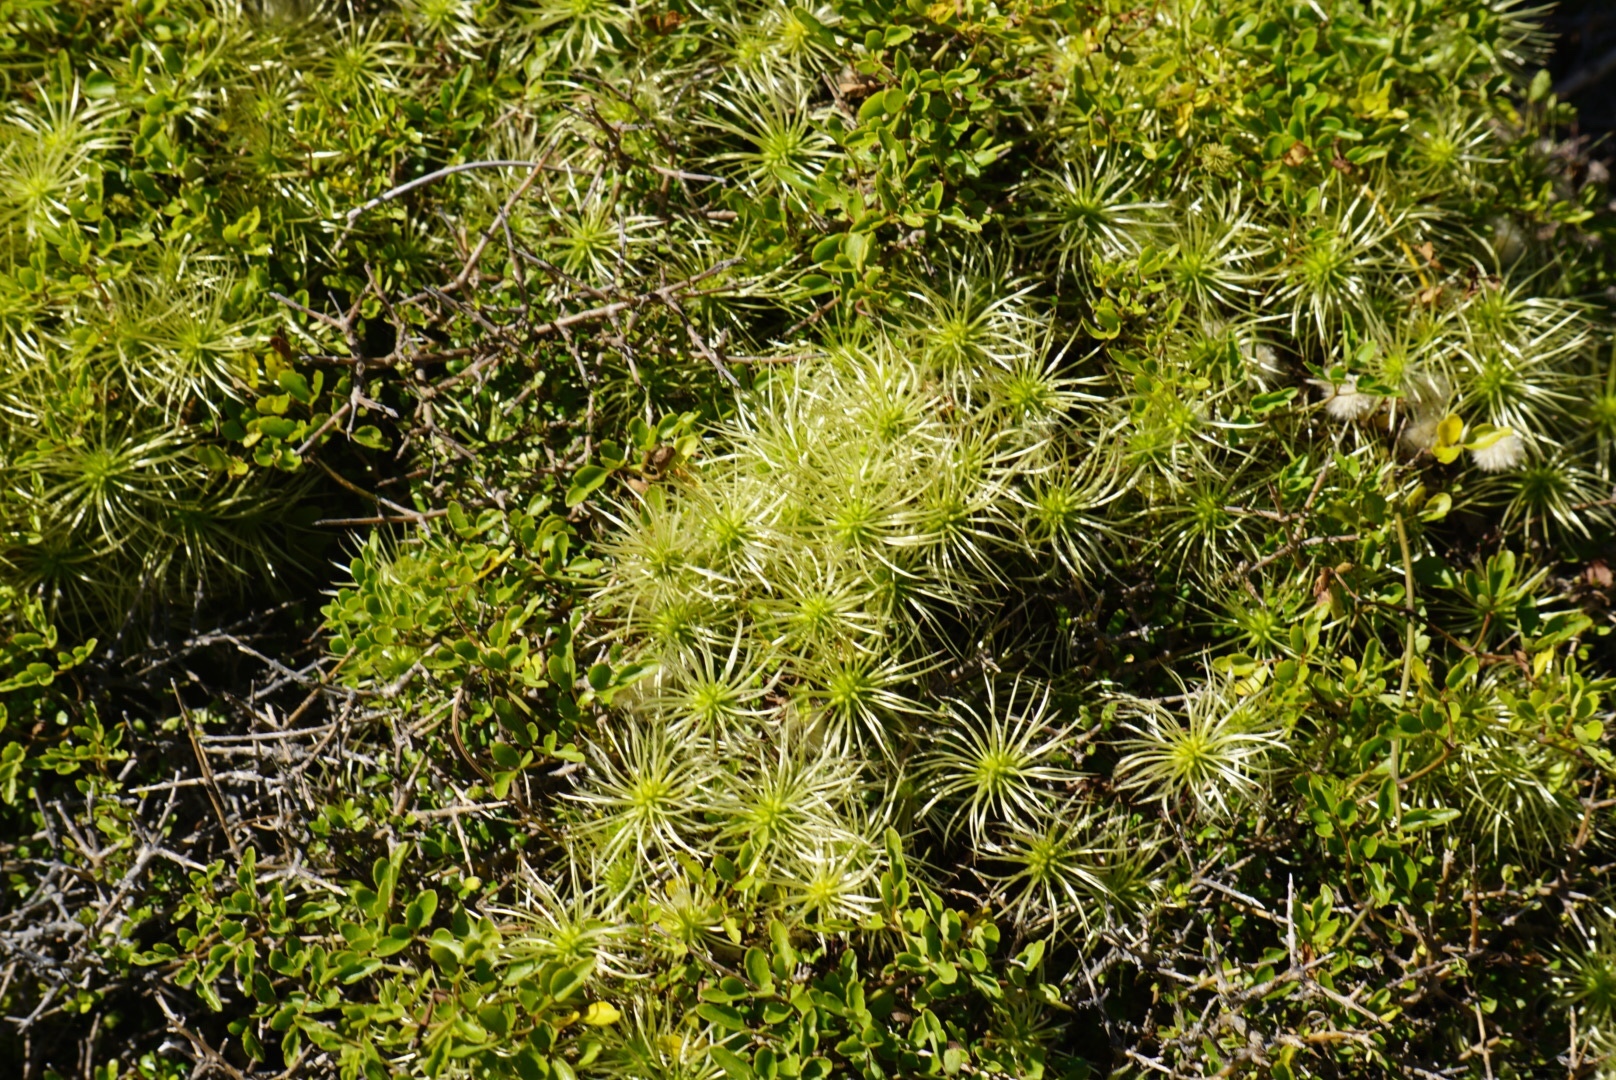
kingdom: Plantae
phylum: Tracheophyta
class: Magnoliopsida
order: Ranunculales
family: Ranunculaceae
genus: Clematis
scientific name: Clematis forsteri
